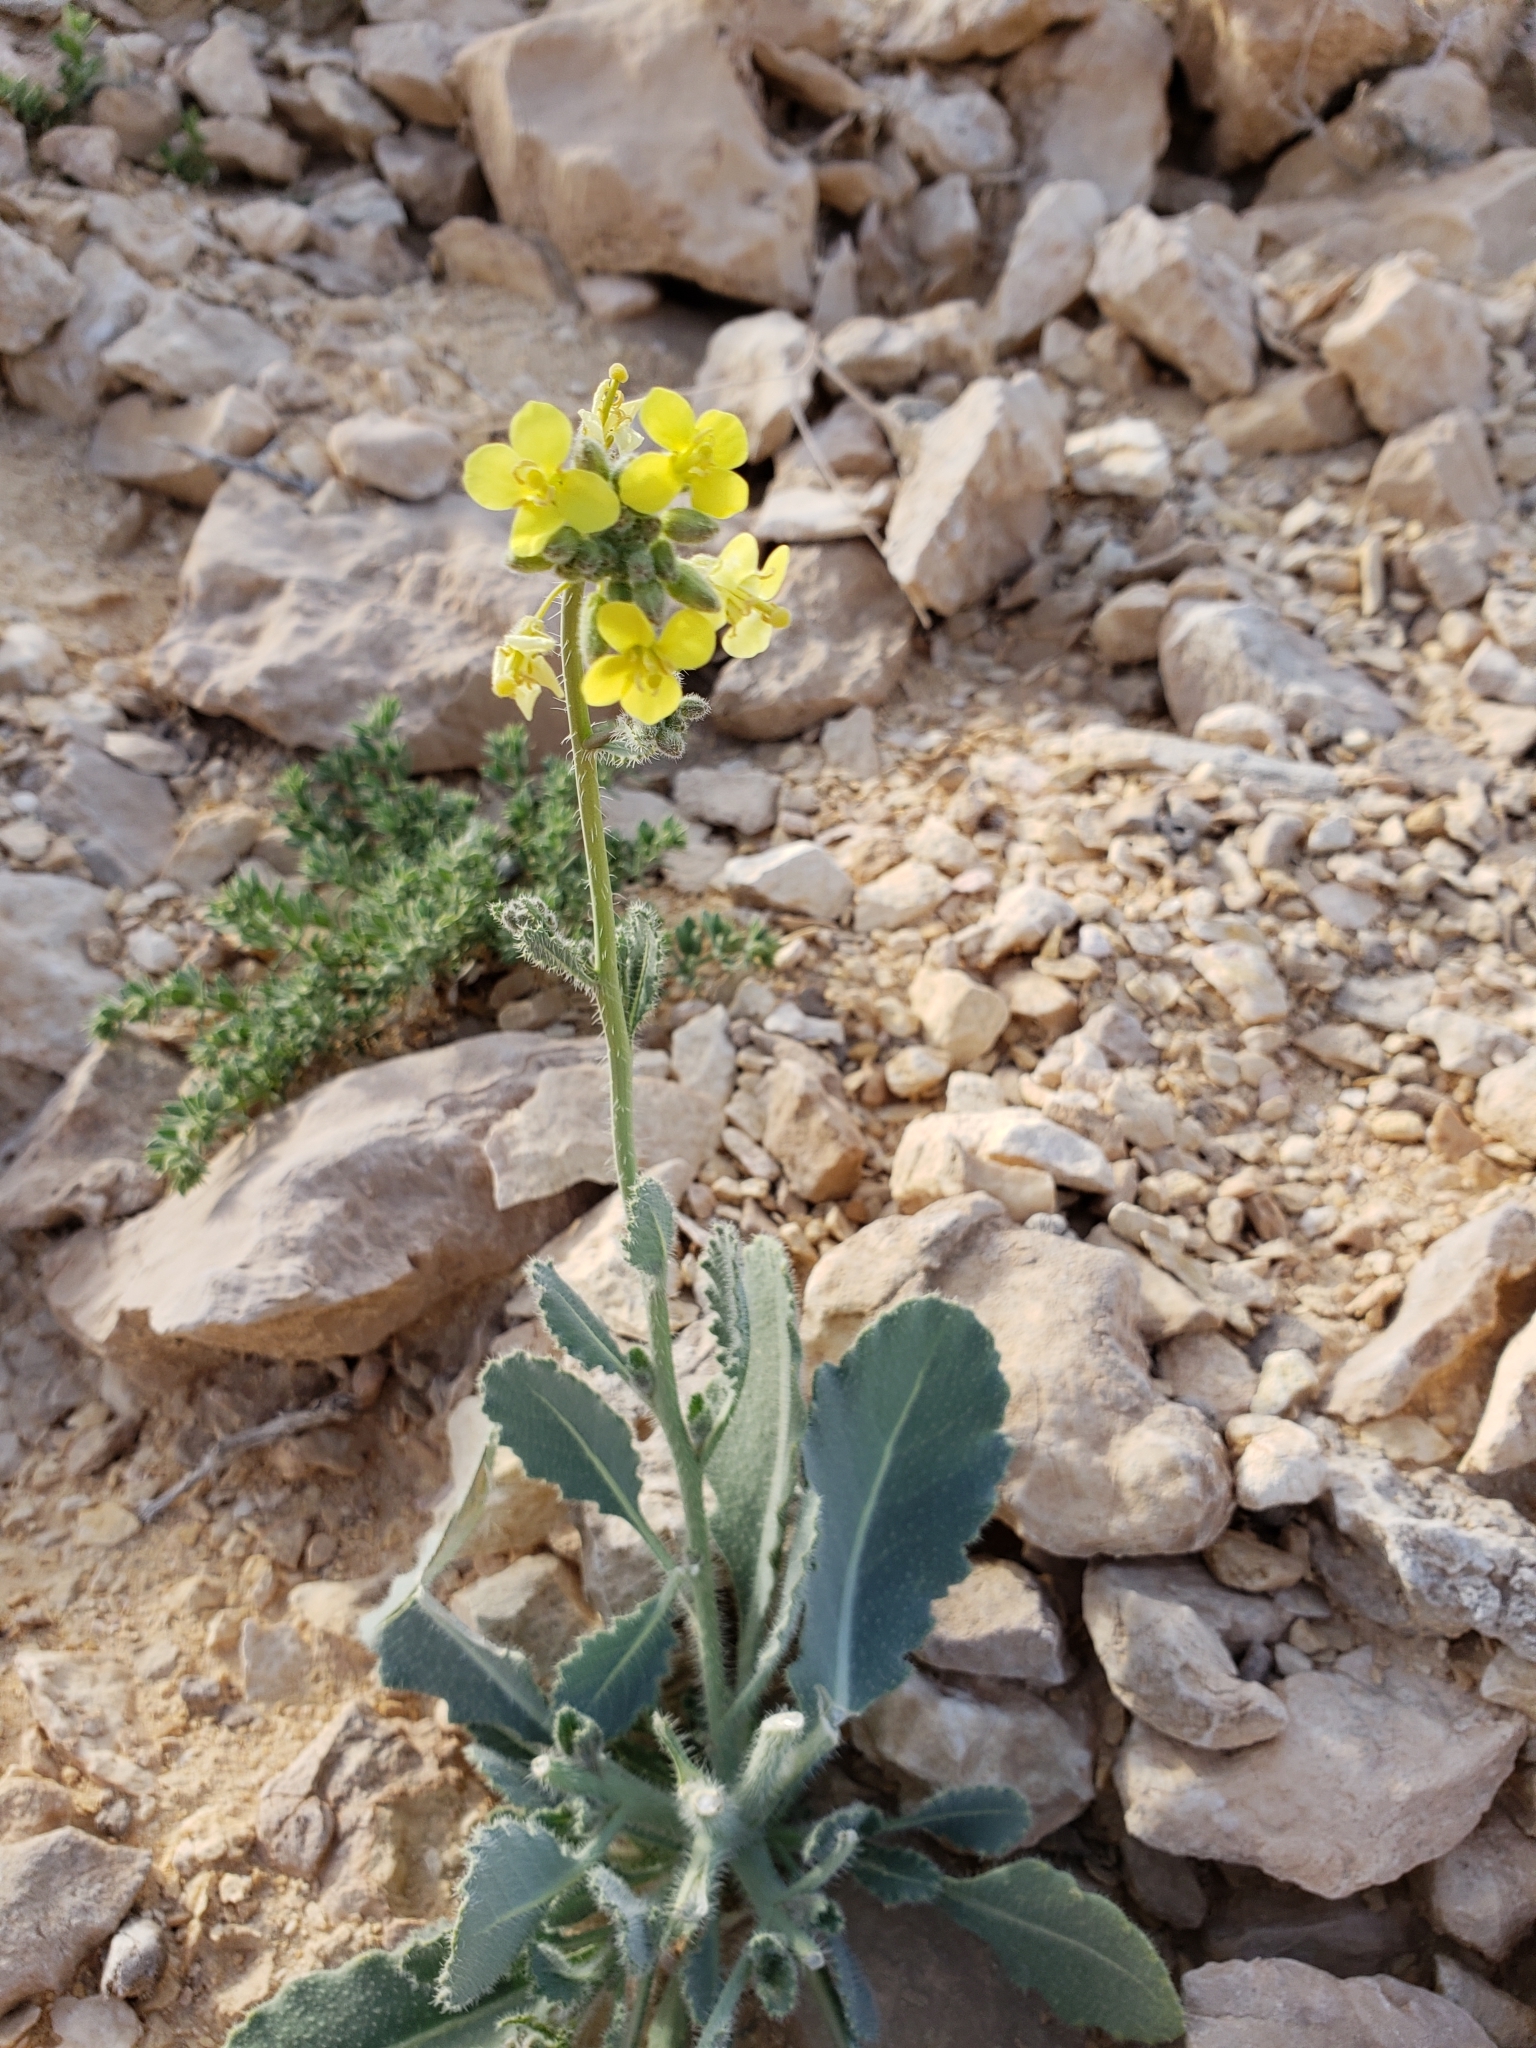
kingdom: Plantae
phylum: Tracheophyta
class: Magnoliopsida
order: Brassicales
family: Brassicaceae
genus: Diplotaxis
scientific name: Diplotaxis harra
